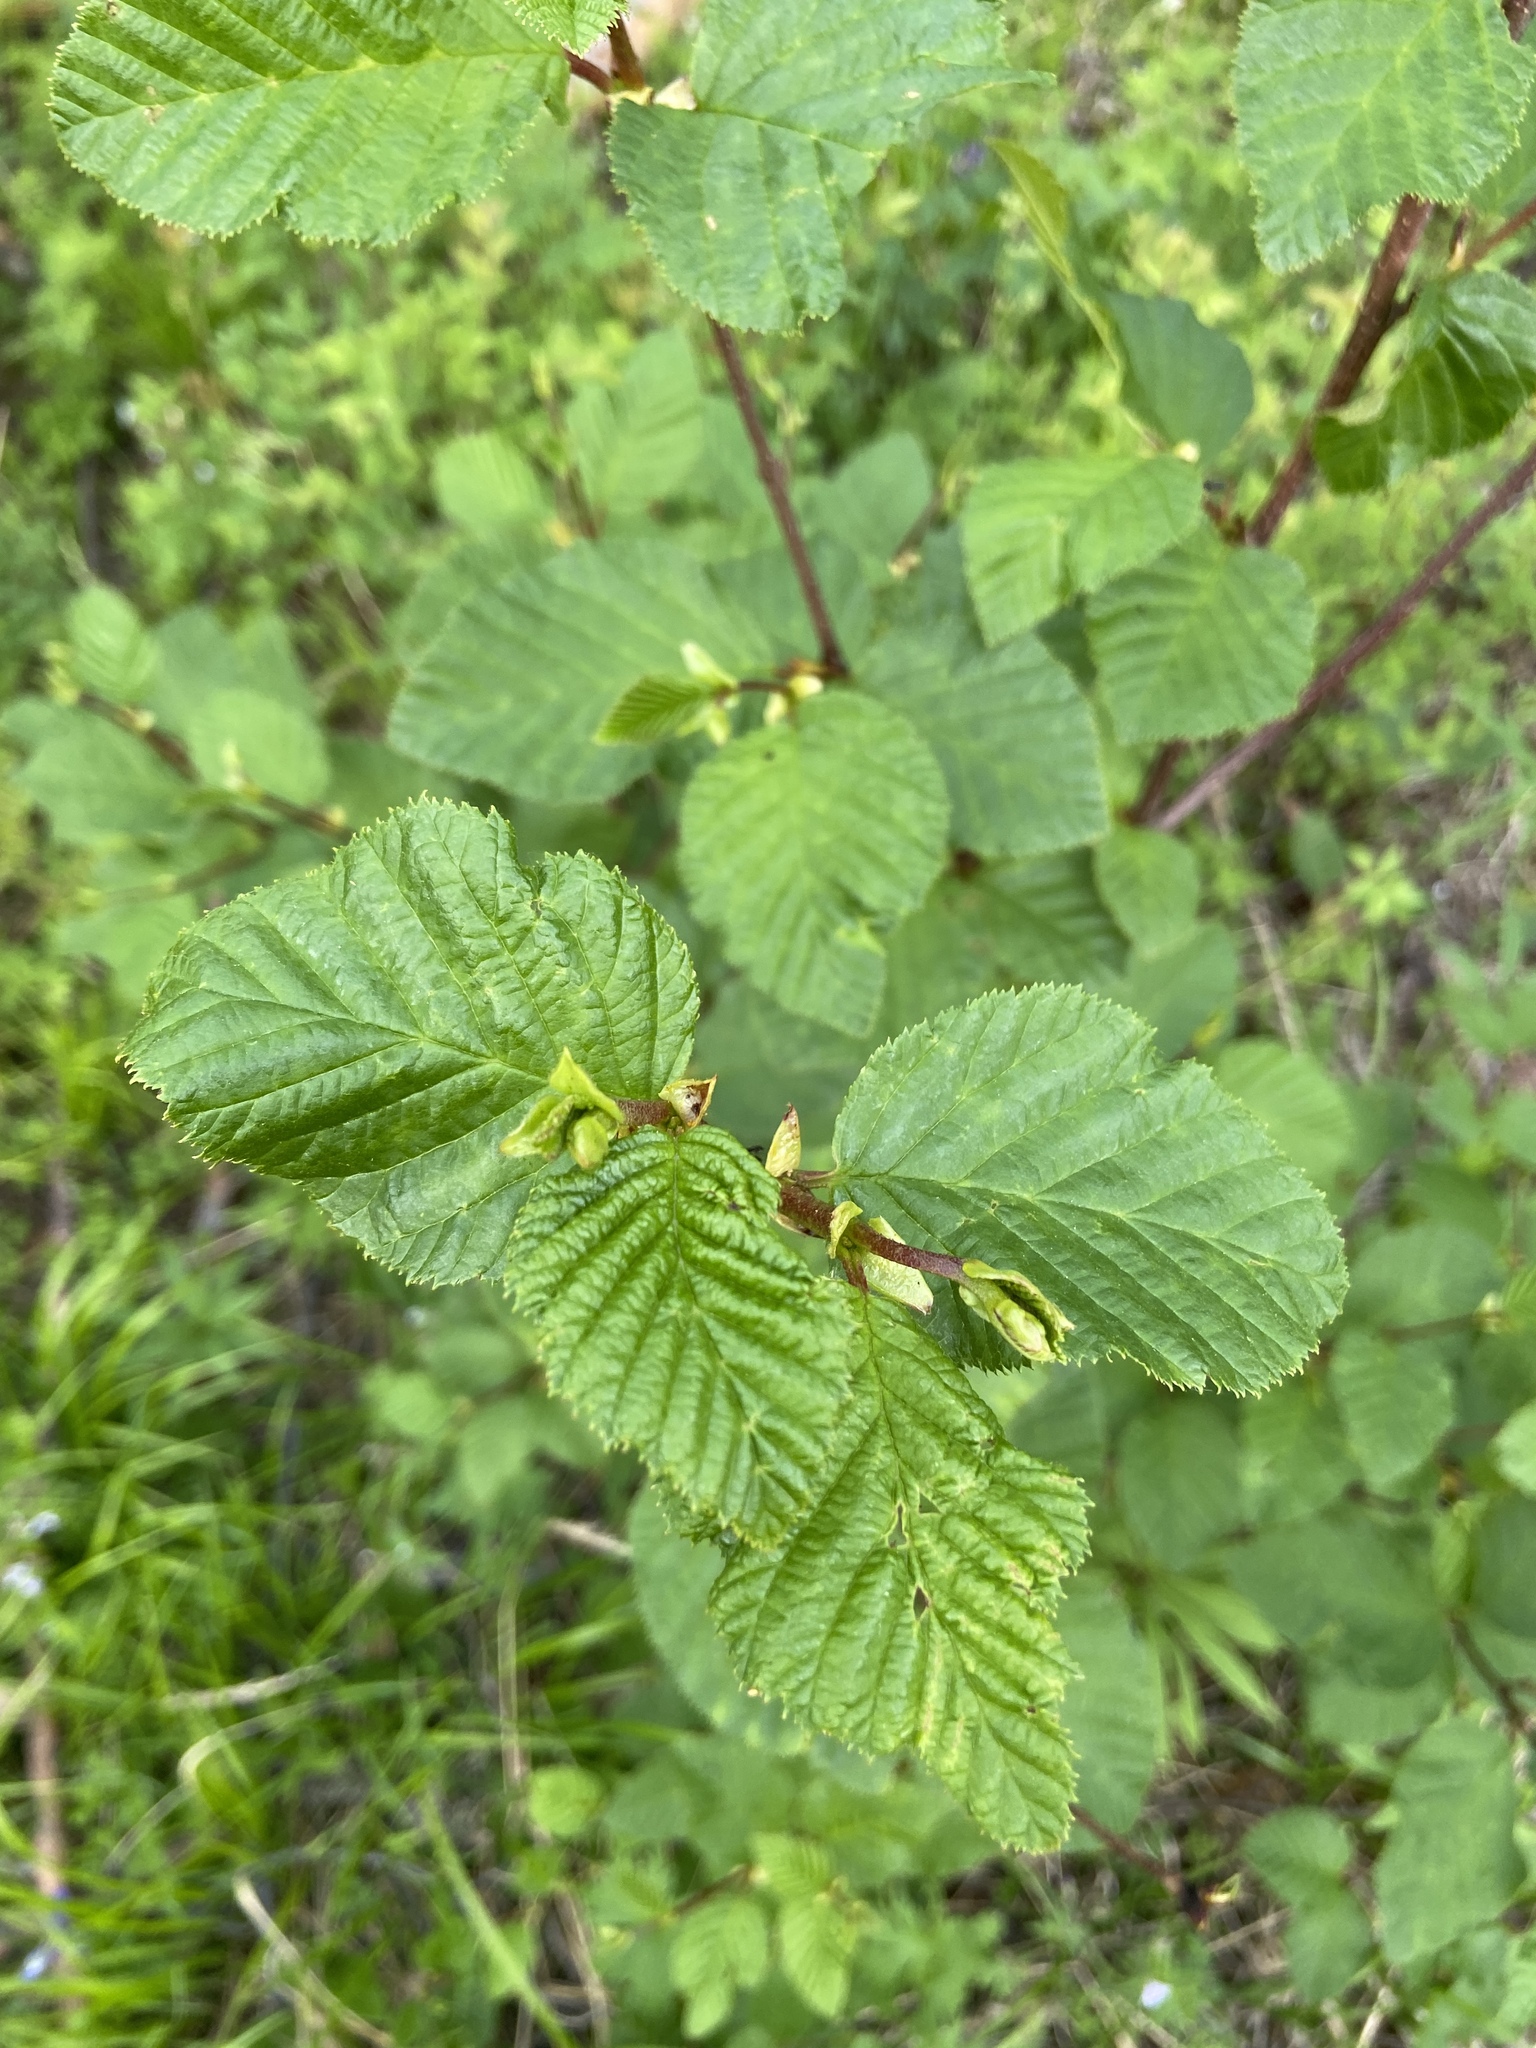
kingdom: Plantae
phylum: Tracheophyta
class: Magnoliopsida
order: Fagales
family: Betulaceae
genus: Alnus
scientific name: Alnus alnobetula
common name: Green alder
